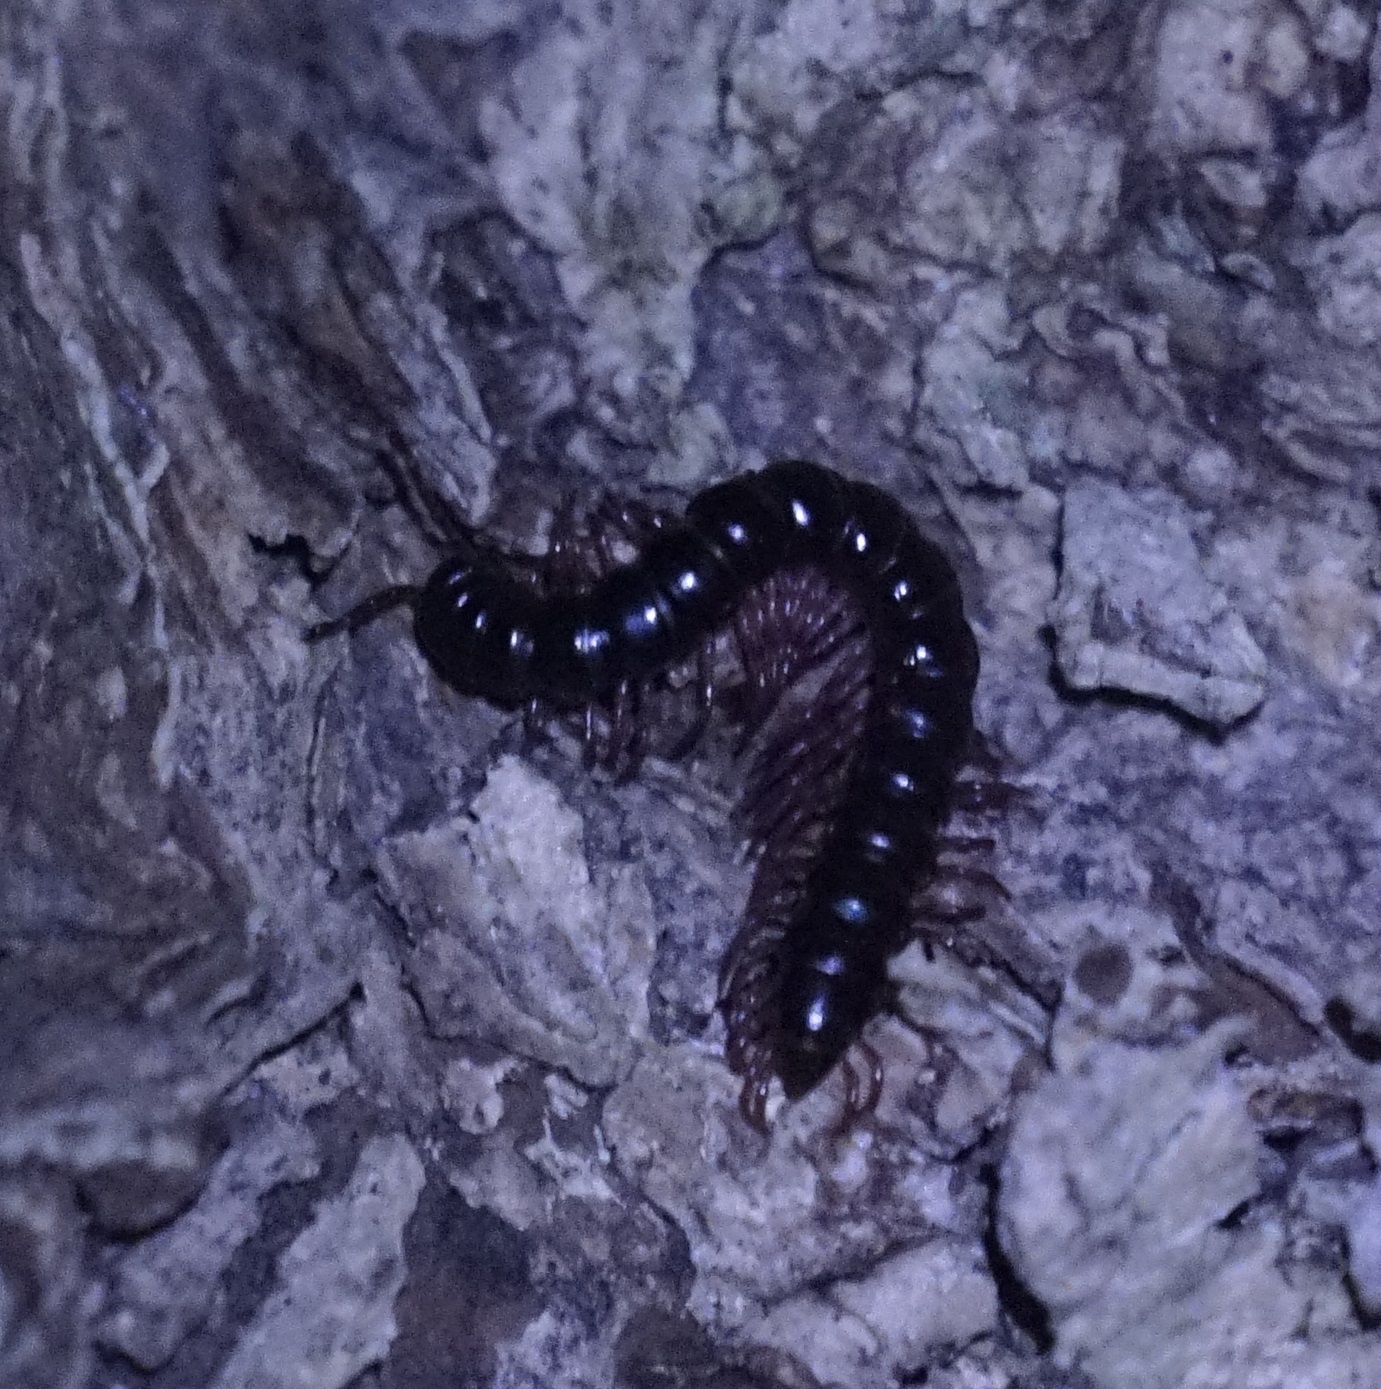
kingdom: Animalia
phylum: Arthropoda
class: Diplopoda
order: Polydesmida
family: Paradoxosomatidae
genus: Heterocladosoma
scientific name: Heterocladosoma
